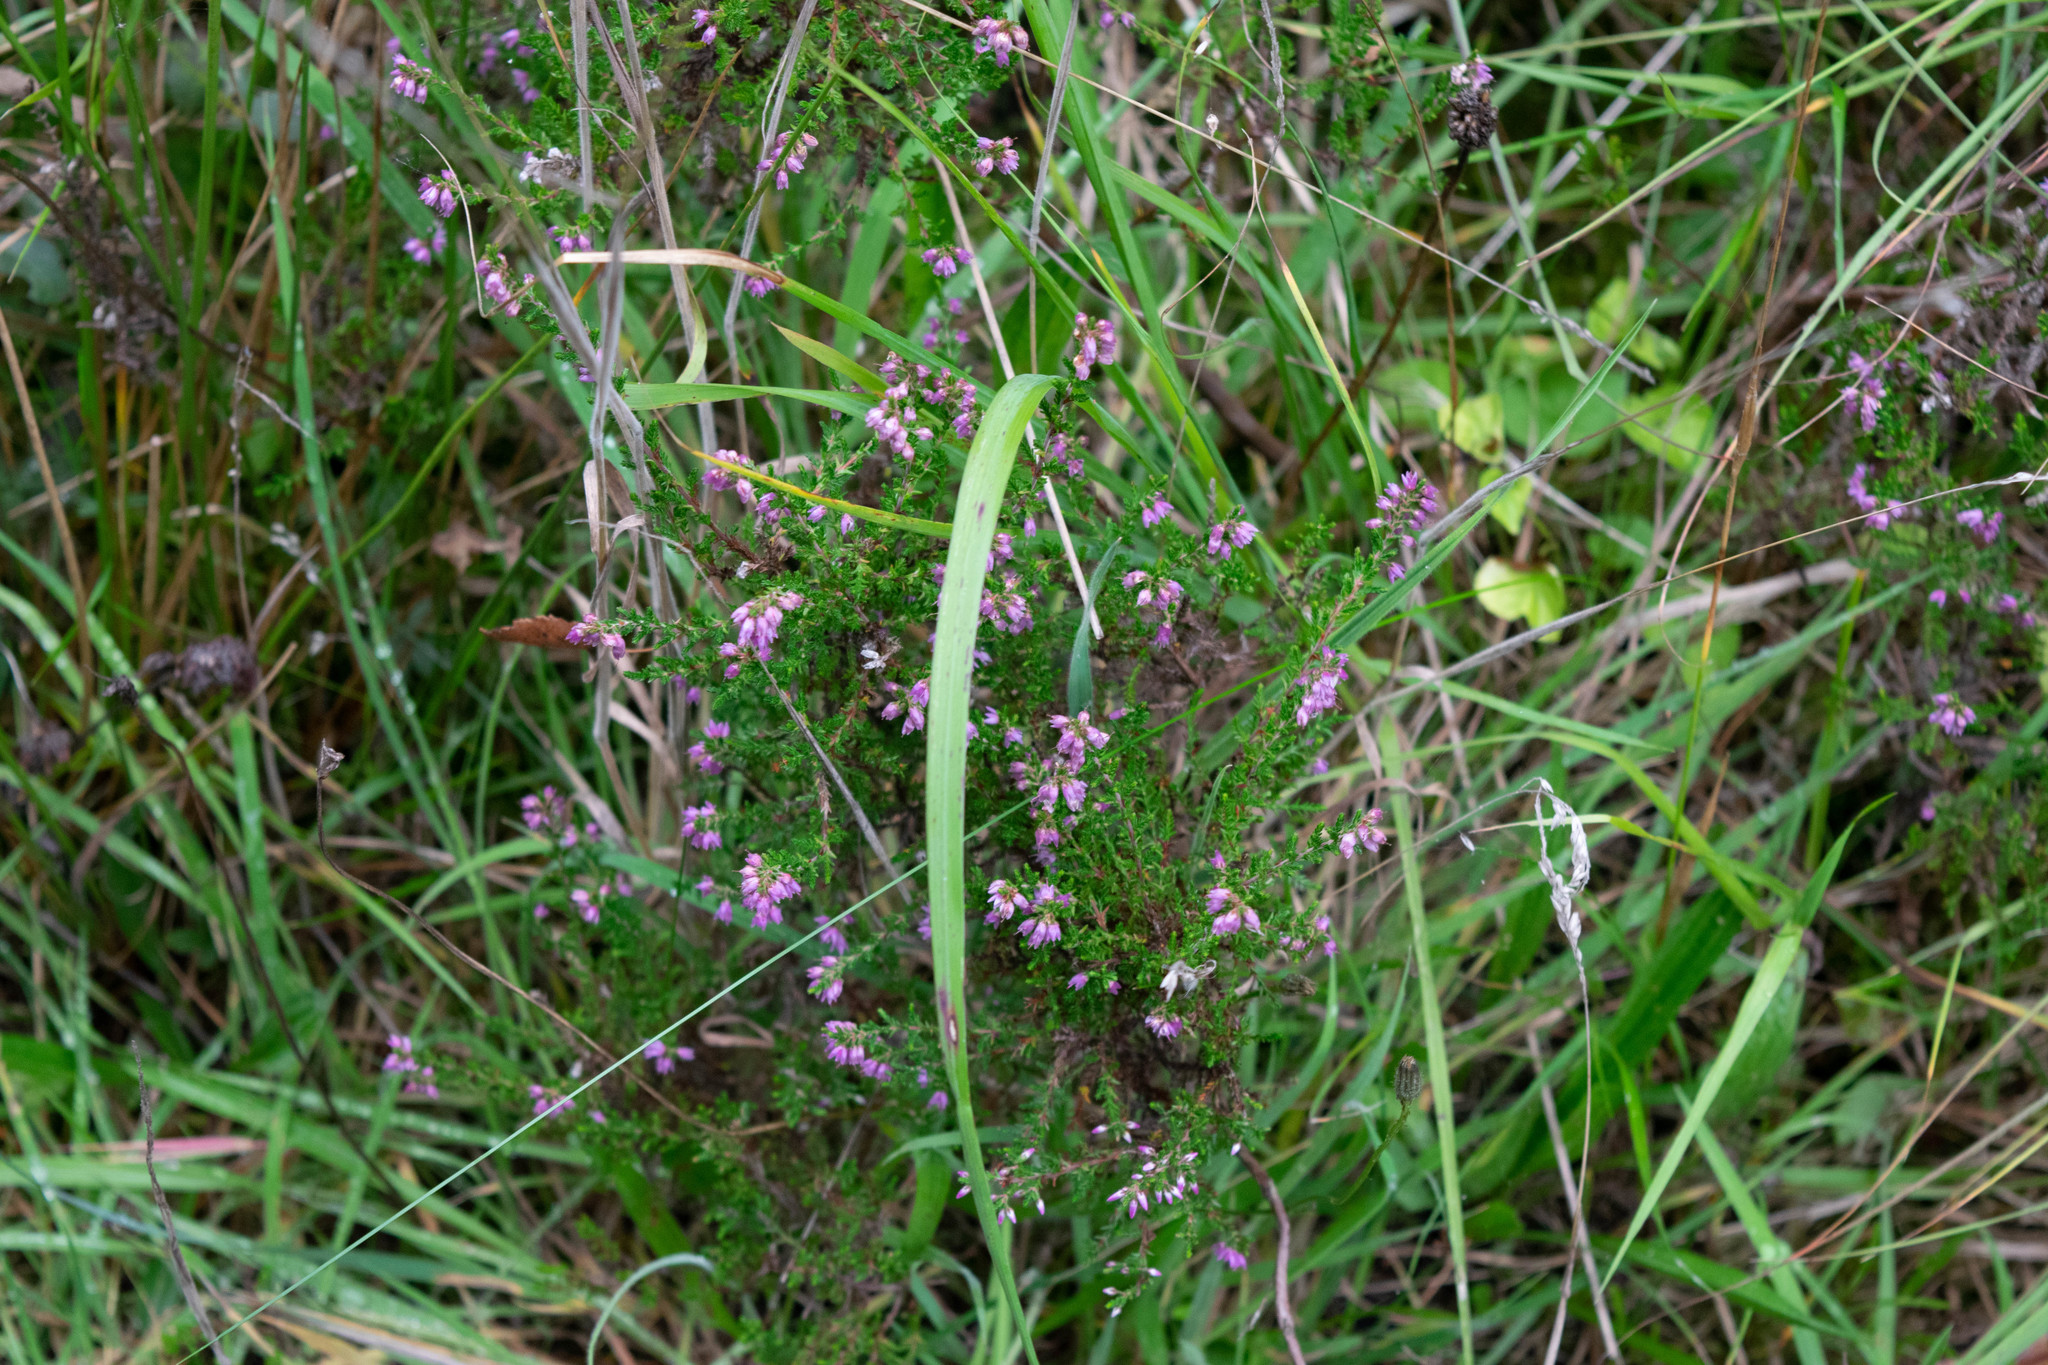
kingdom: Plantae
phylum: Tracheophyta
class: Magnoliopsida
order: Ericales
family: Ericaceae
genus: Calluna
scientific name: Calluna vulgaris
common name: Heather
